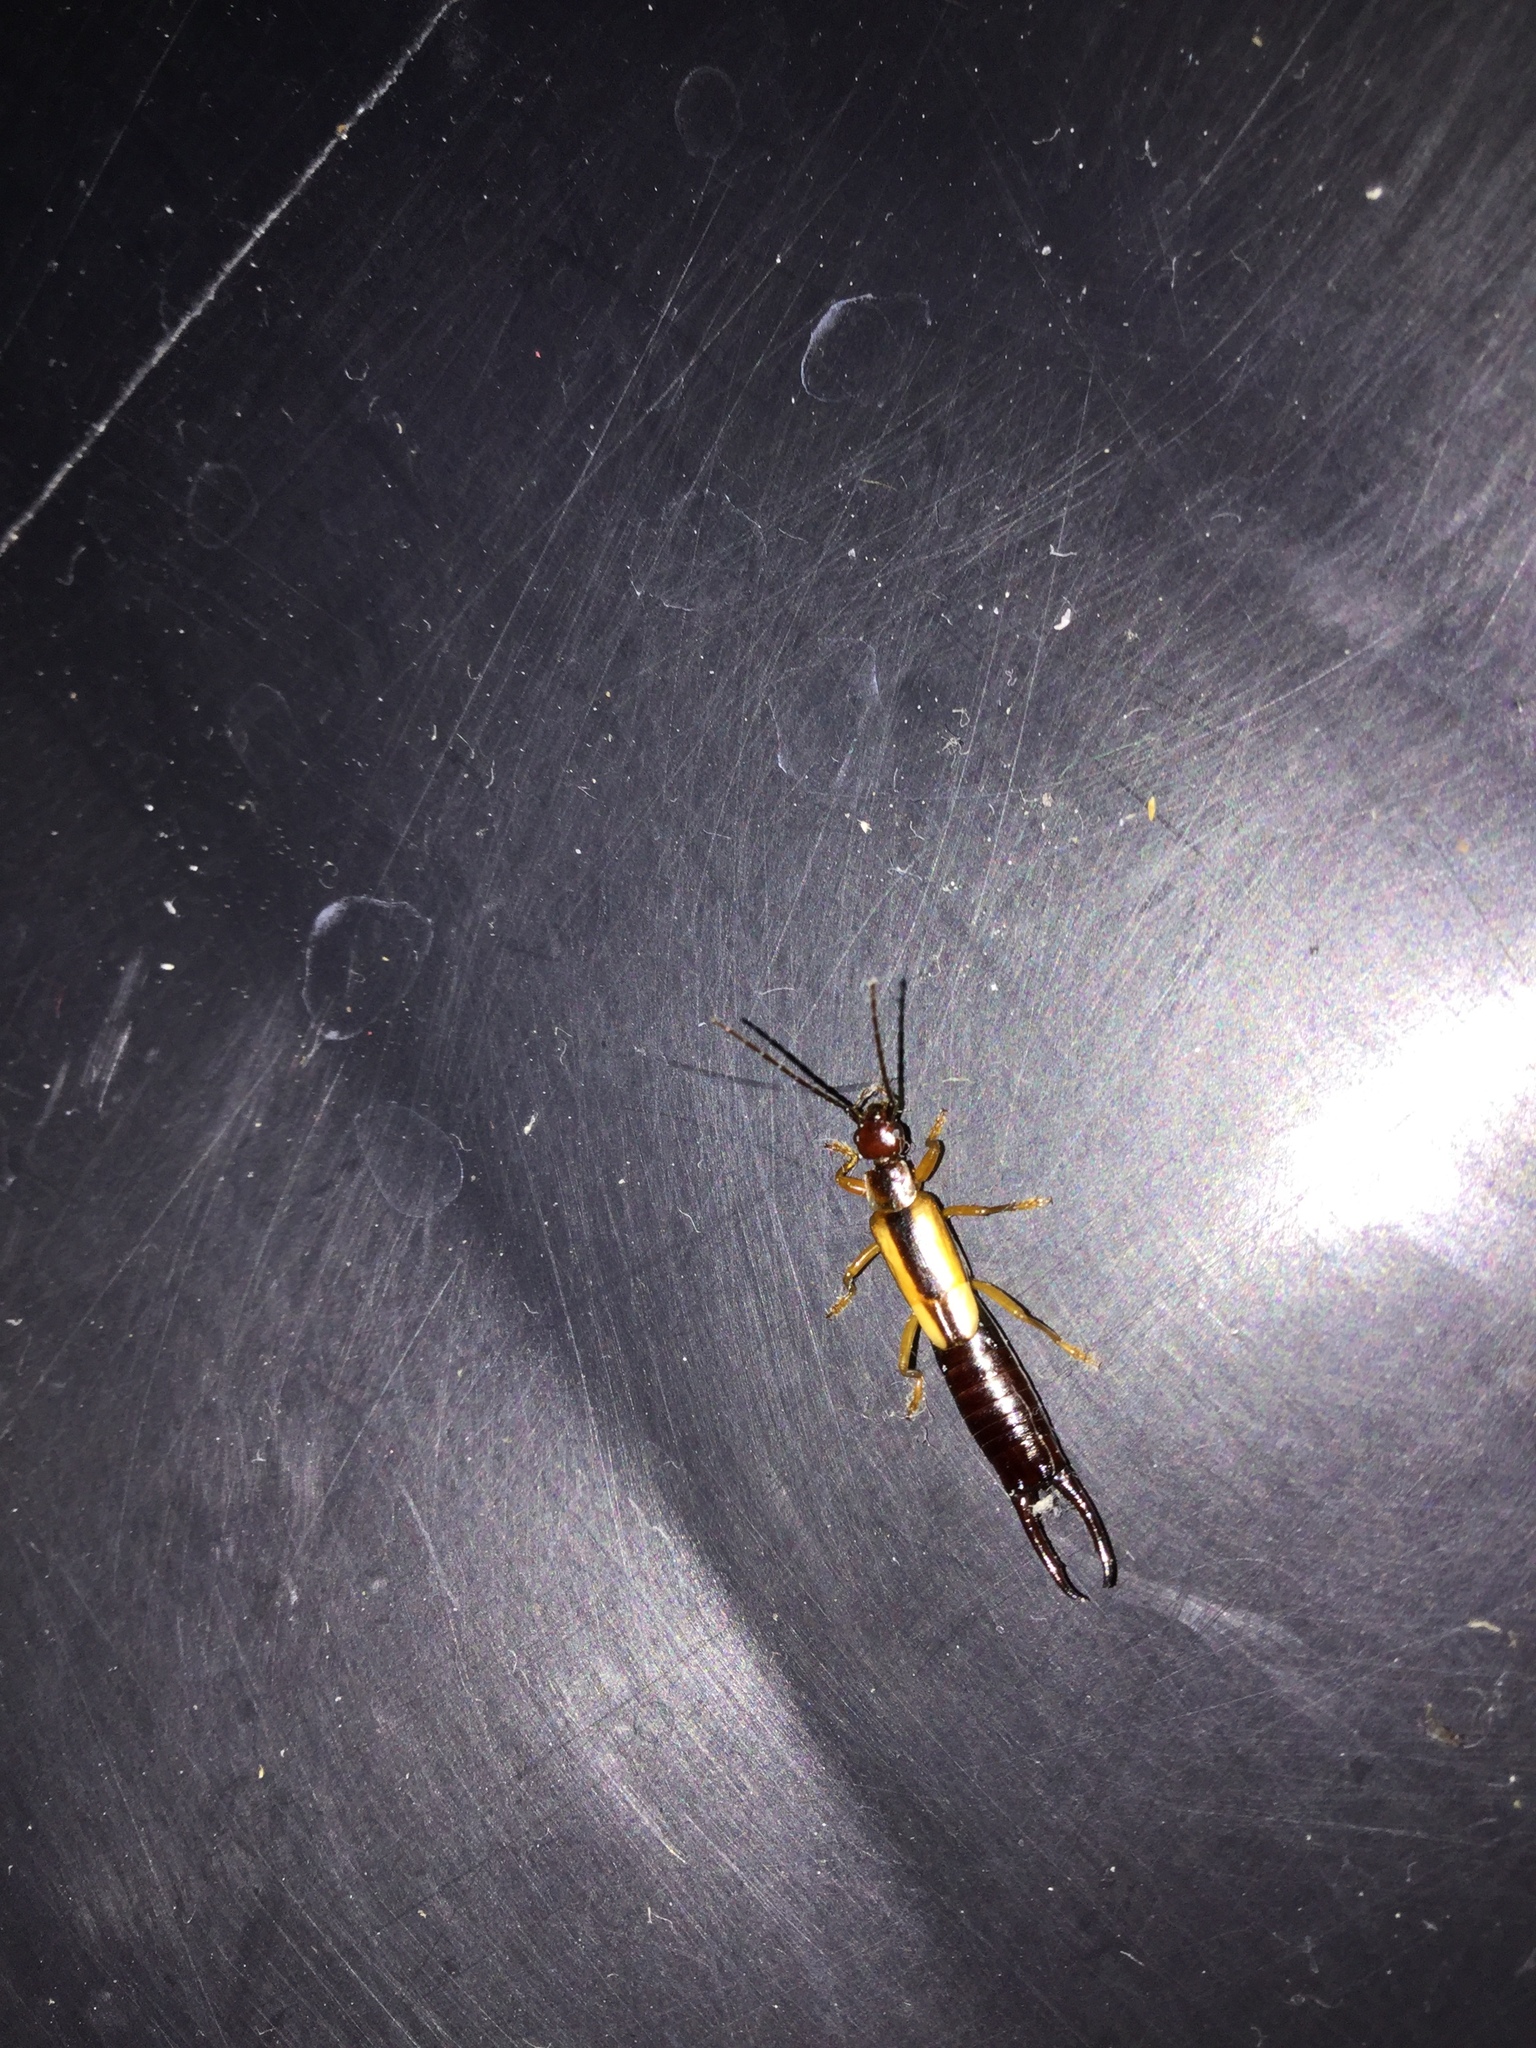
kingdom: Animalia
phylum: Arthropoda
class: Insecta
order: Dermaptera
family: Forficulidae
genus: Doru
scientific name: Doru taeniatum
